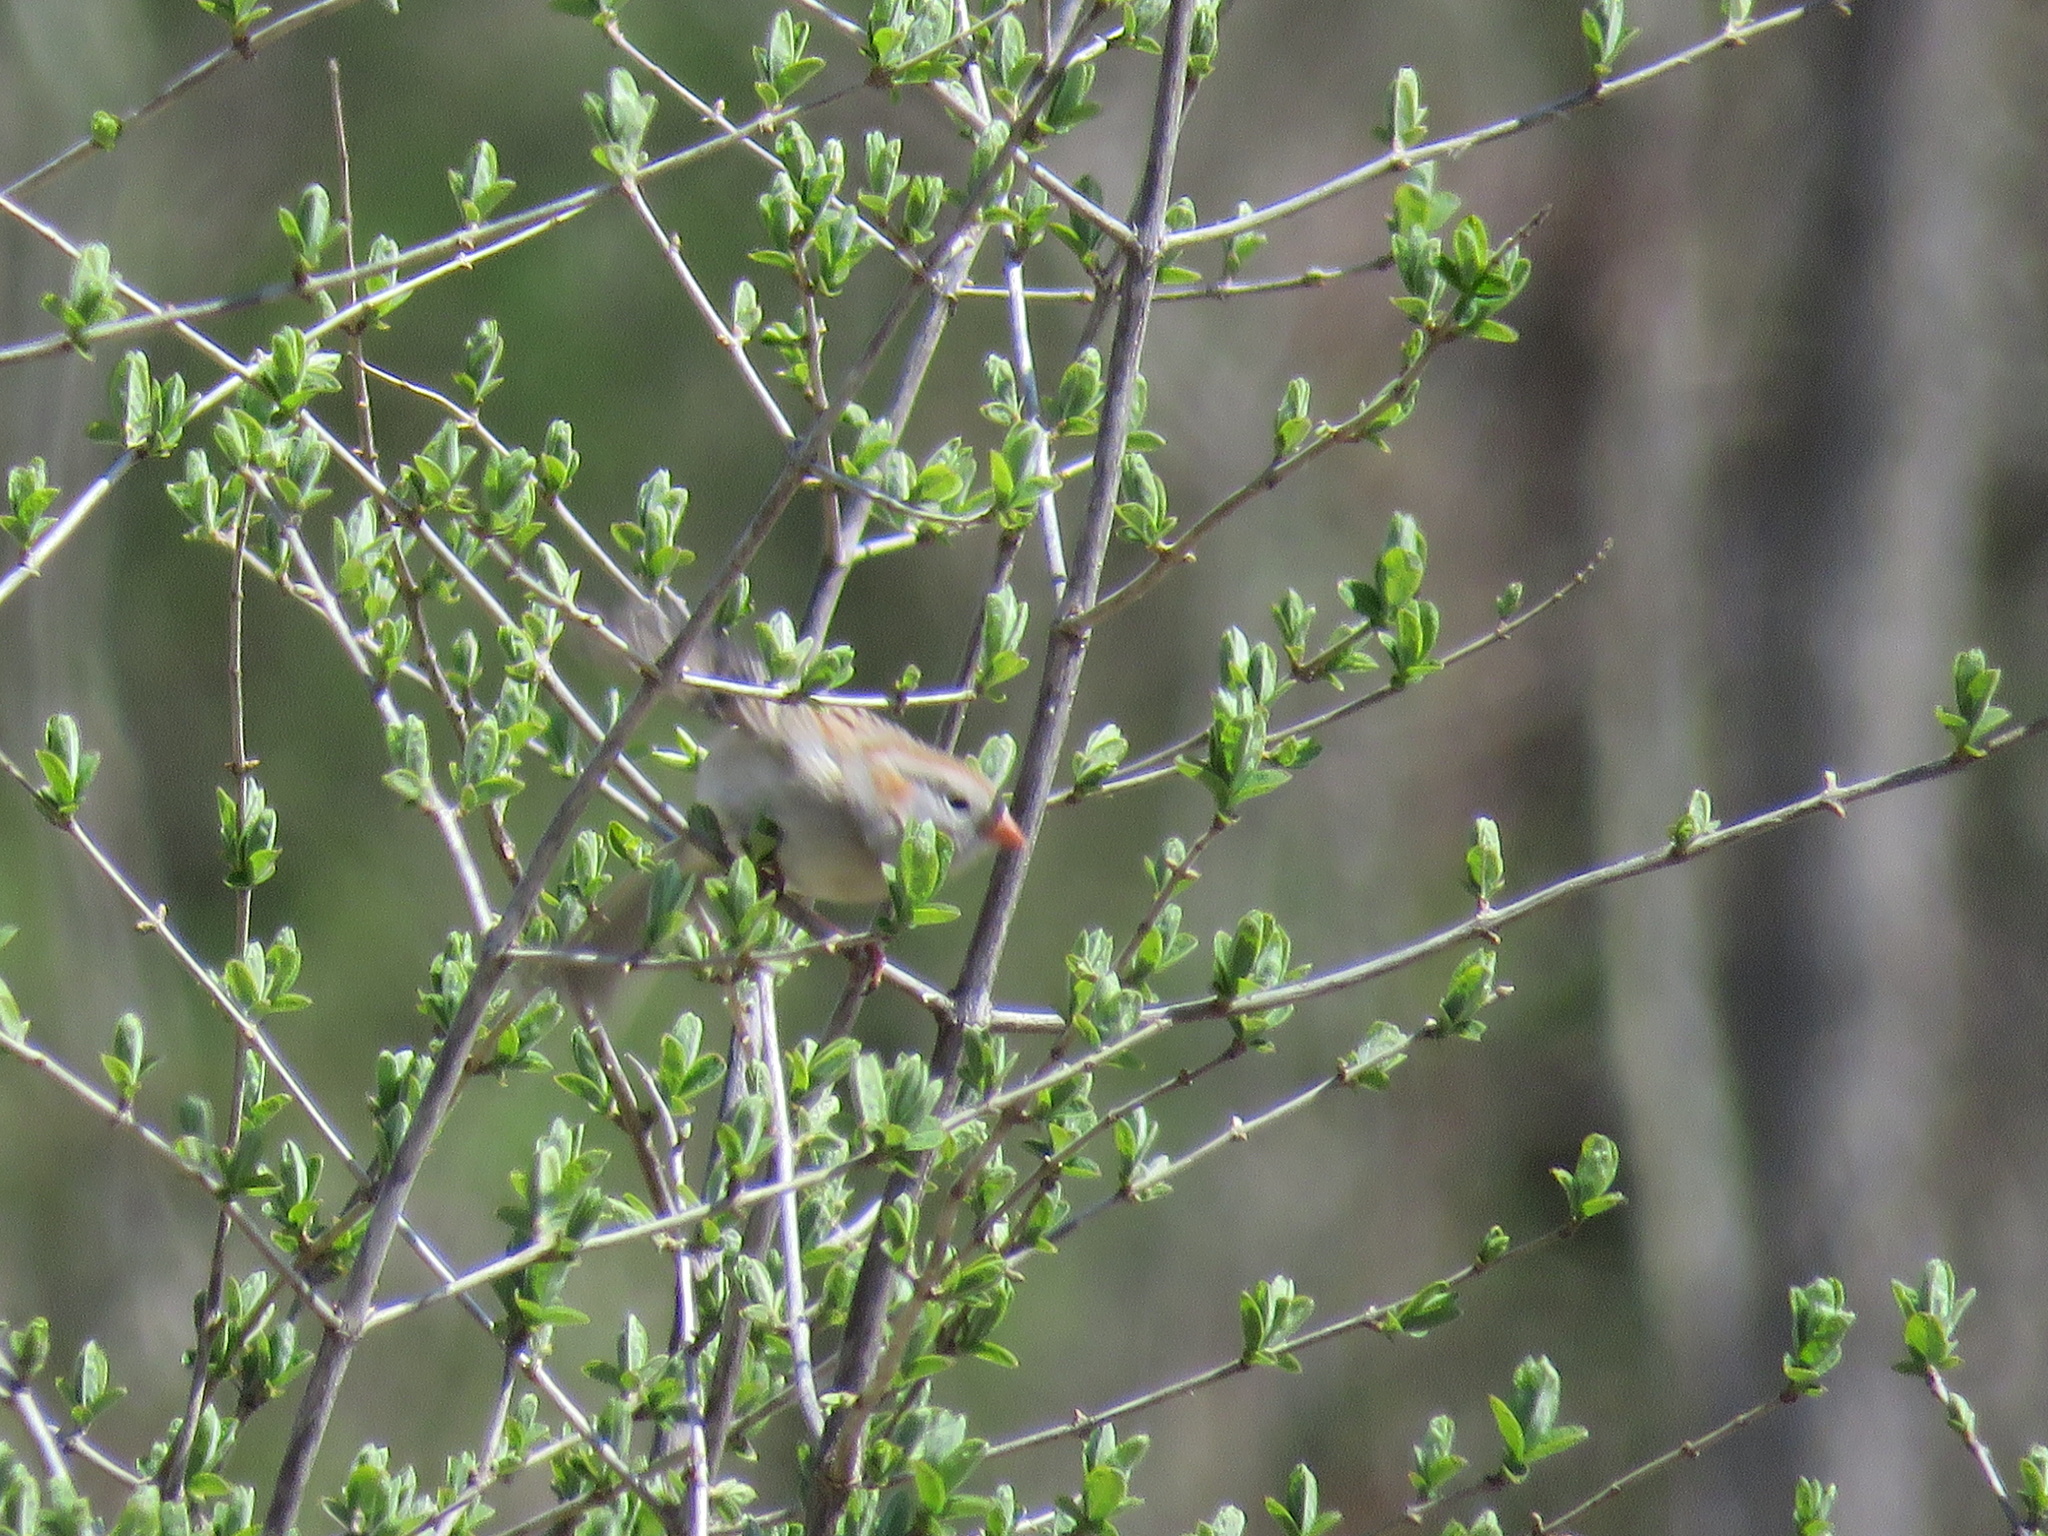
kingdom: Animalia
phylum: Chordata
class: Aves
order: Passeriformes
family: Passerellidae
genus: Spizella
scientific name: Spizella pusilla
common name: Field sparrow
